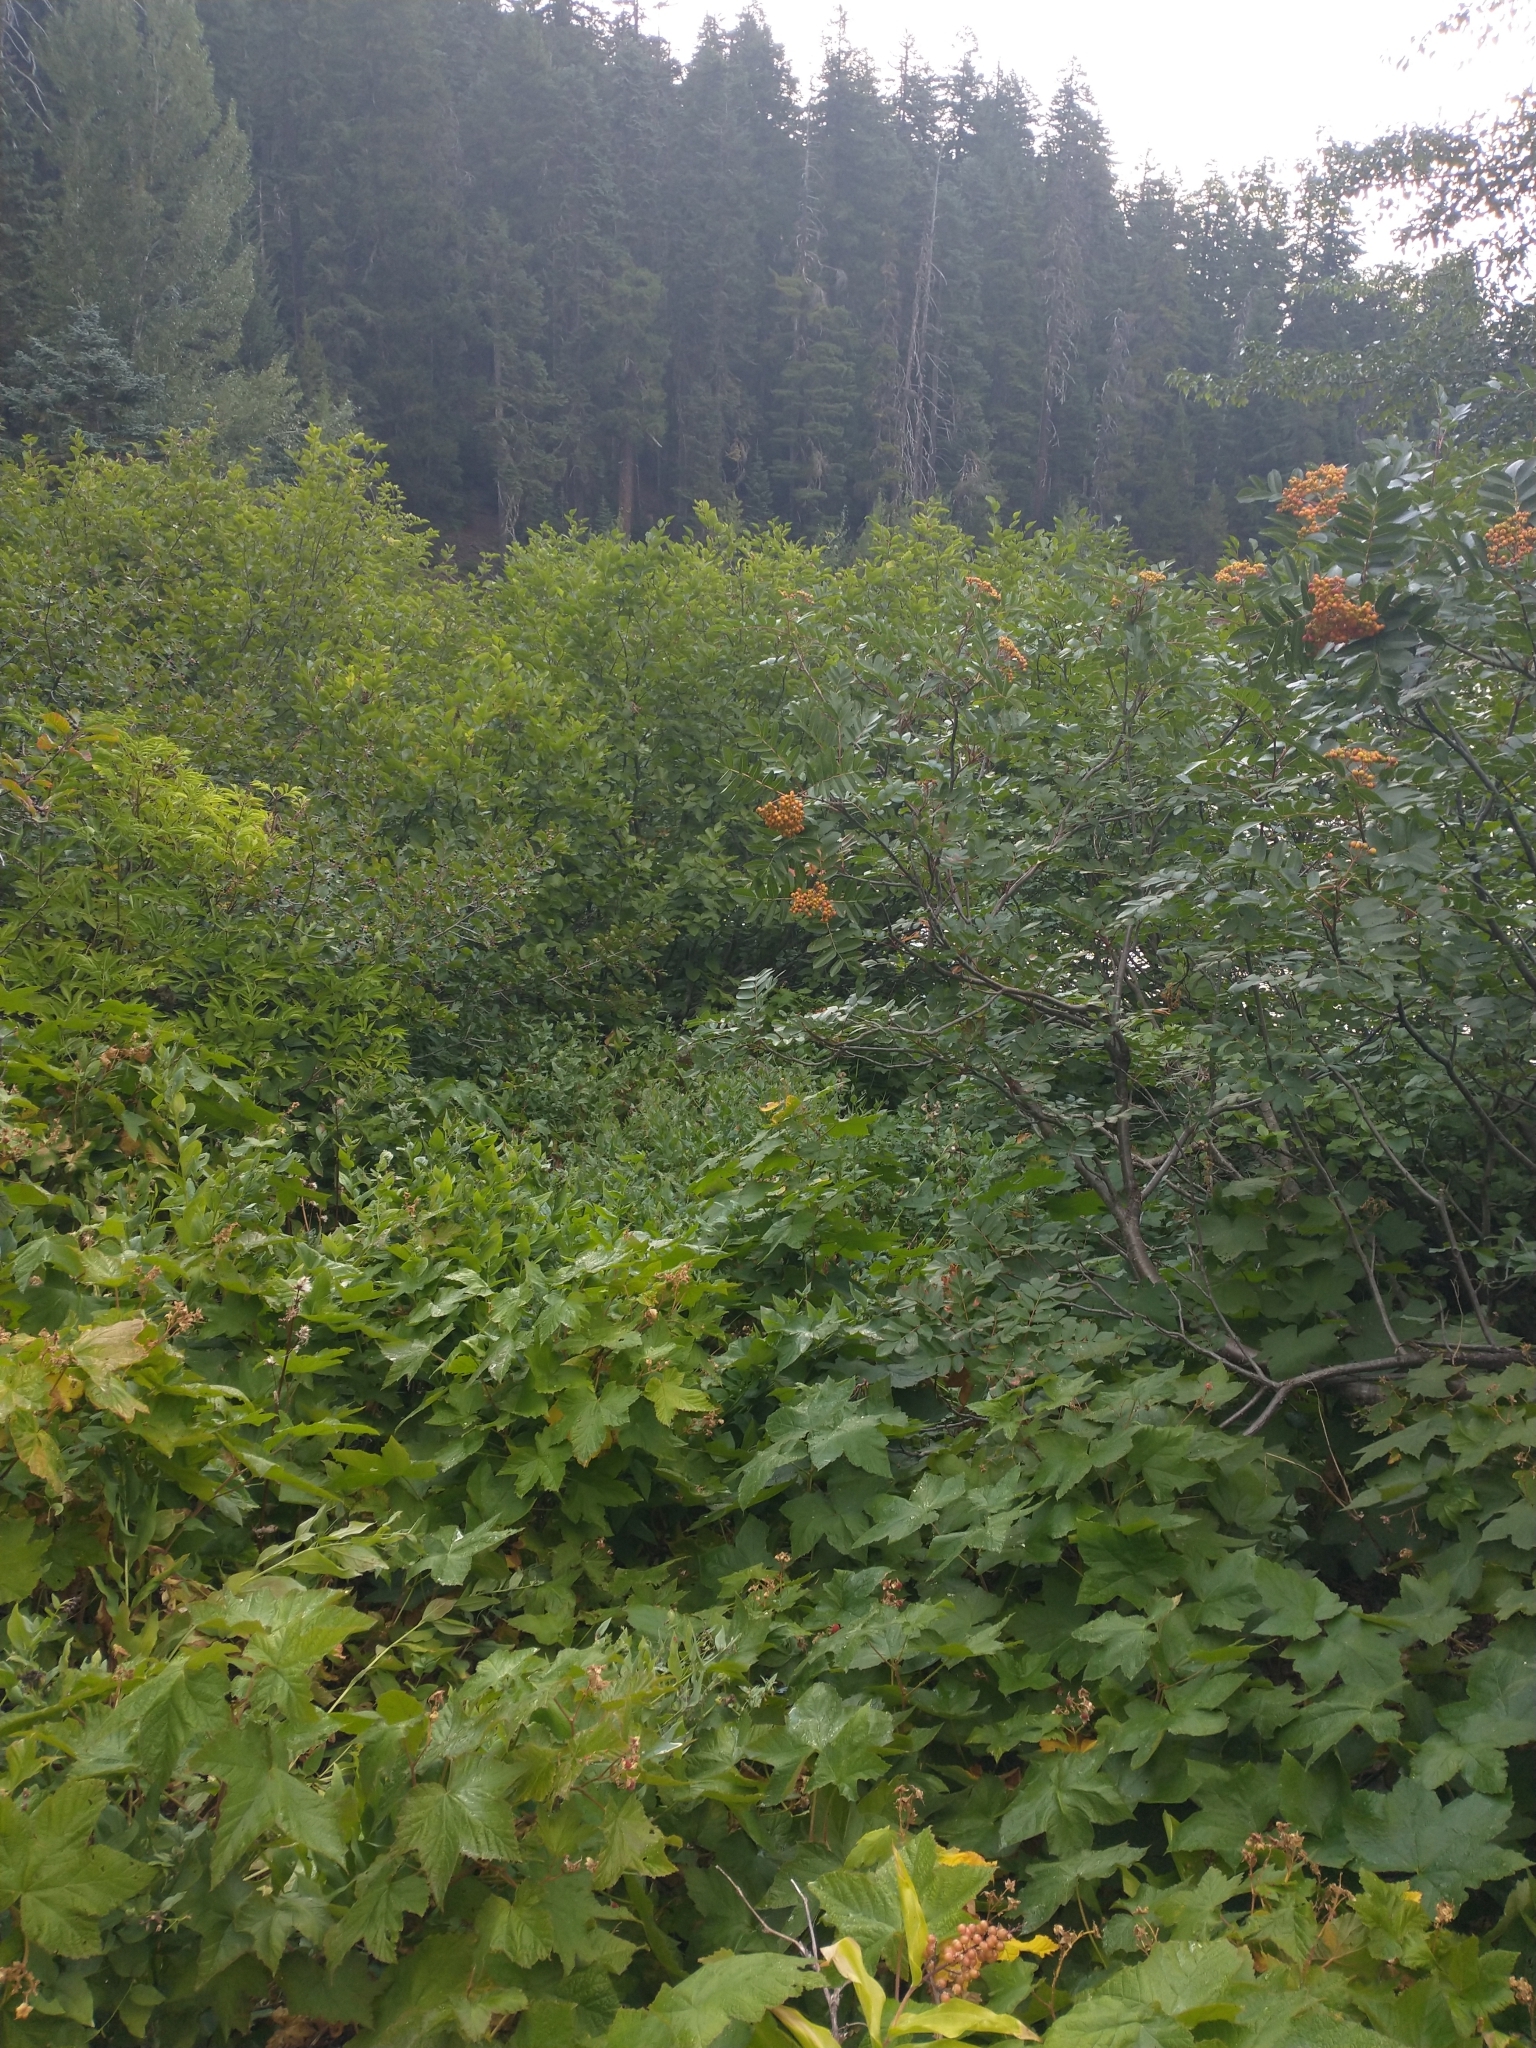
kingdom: Plantae
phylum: Tracheophyta
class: Magnoliopsida
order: Rosales
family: Rosaceae
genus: Rubus
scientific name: Rubus parviflorus
